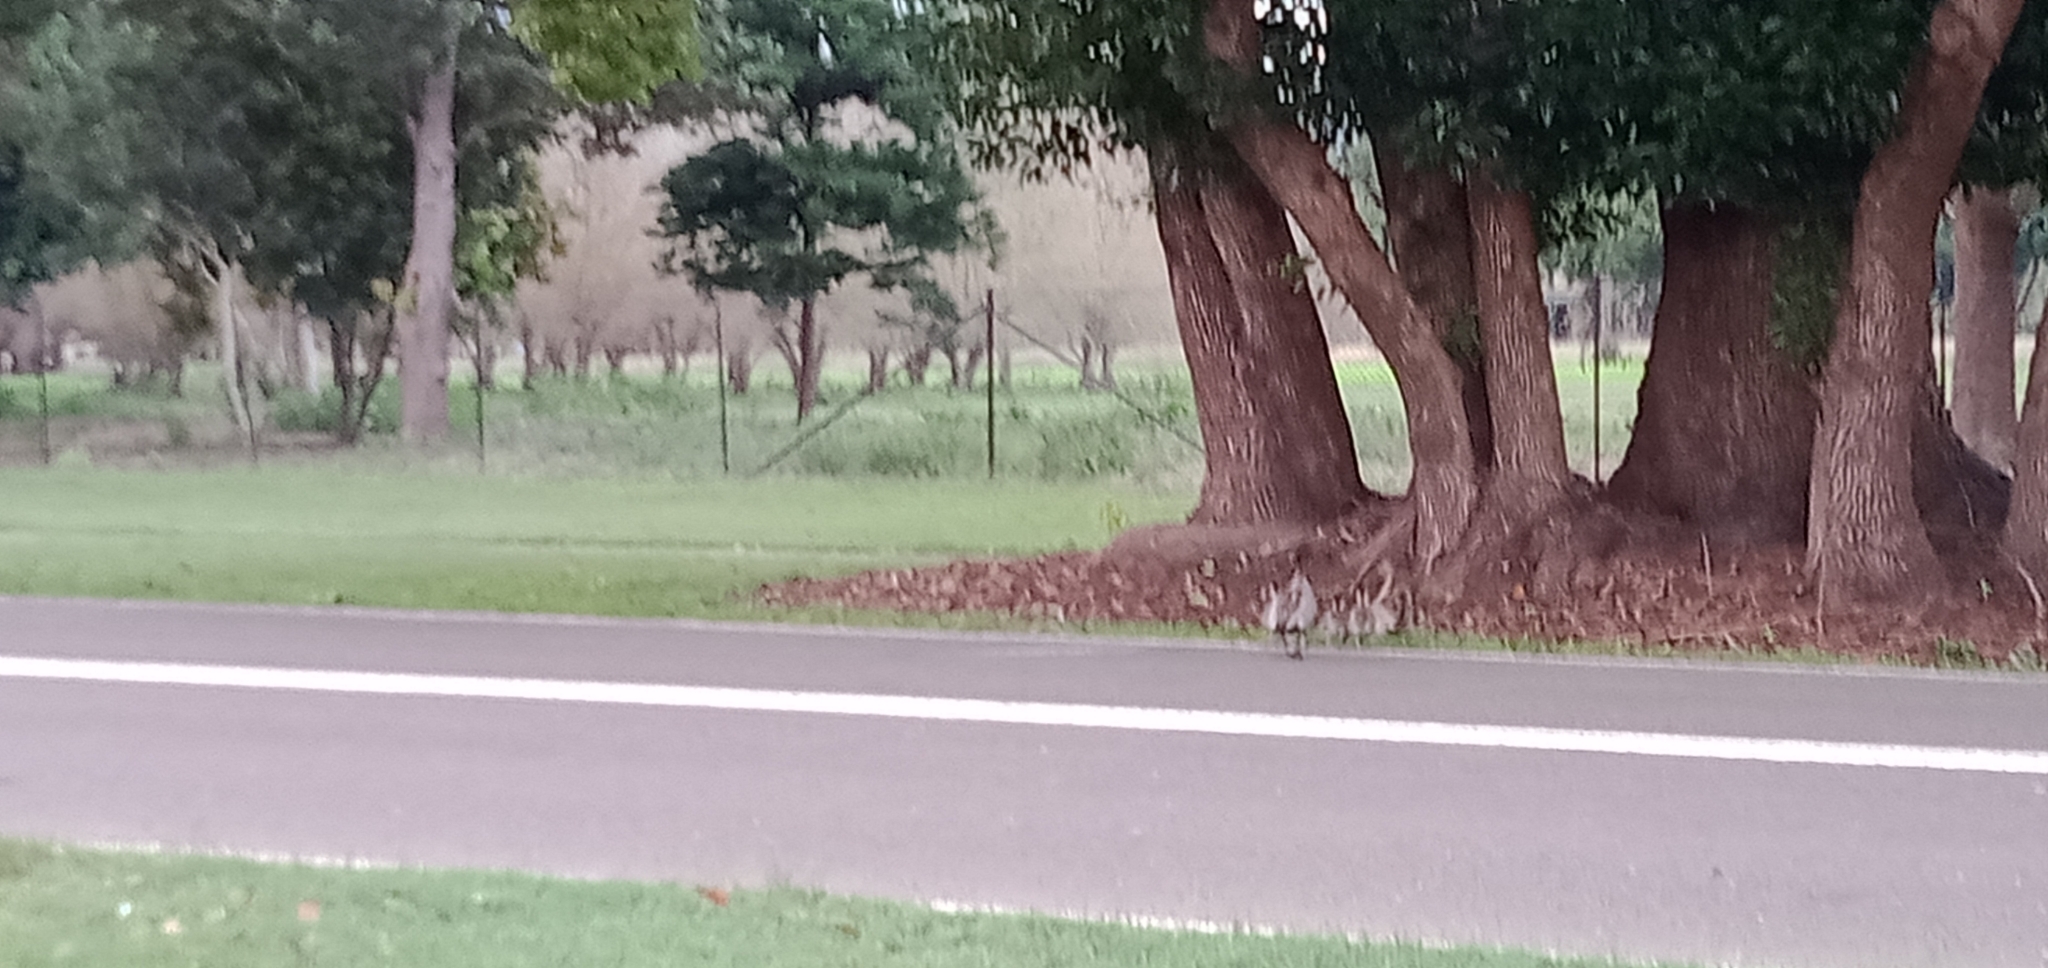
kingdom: Animalia
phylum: Chordata
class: Aves
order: Anseriformes
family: Anatidae
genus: Chenonetta
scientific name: Chenonetta jubata
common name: Maned duck
